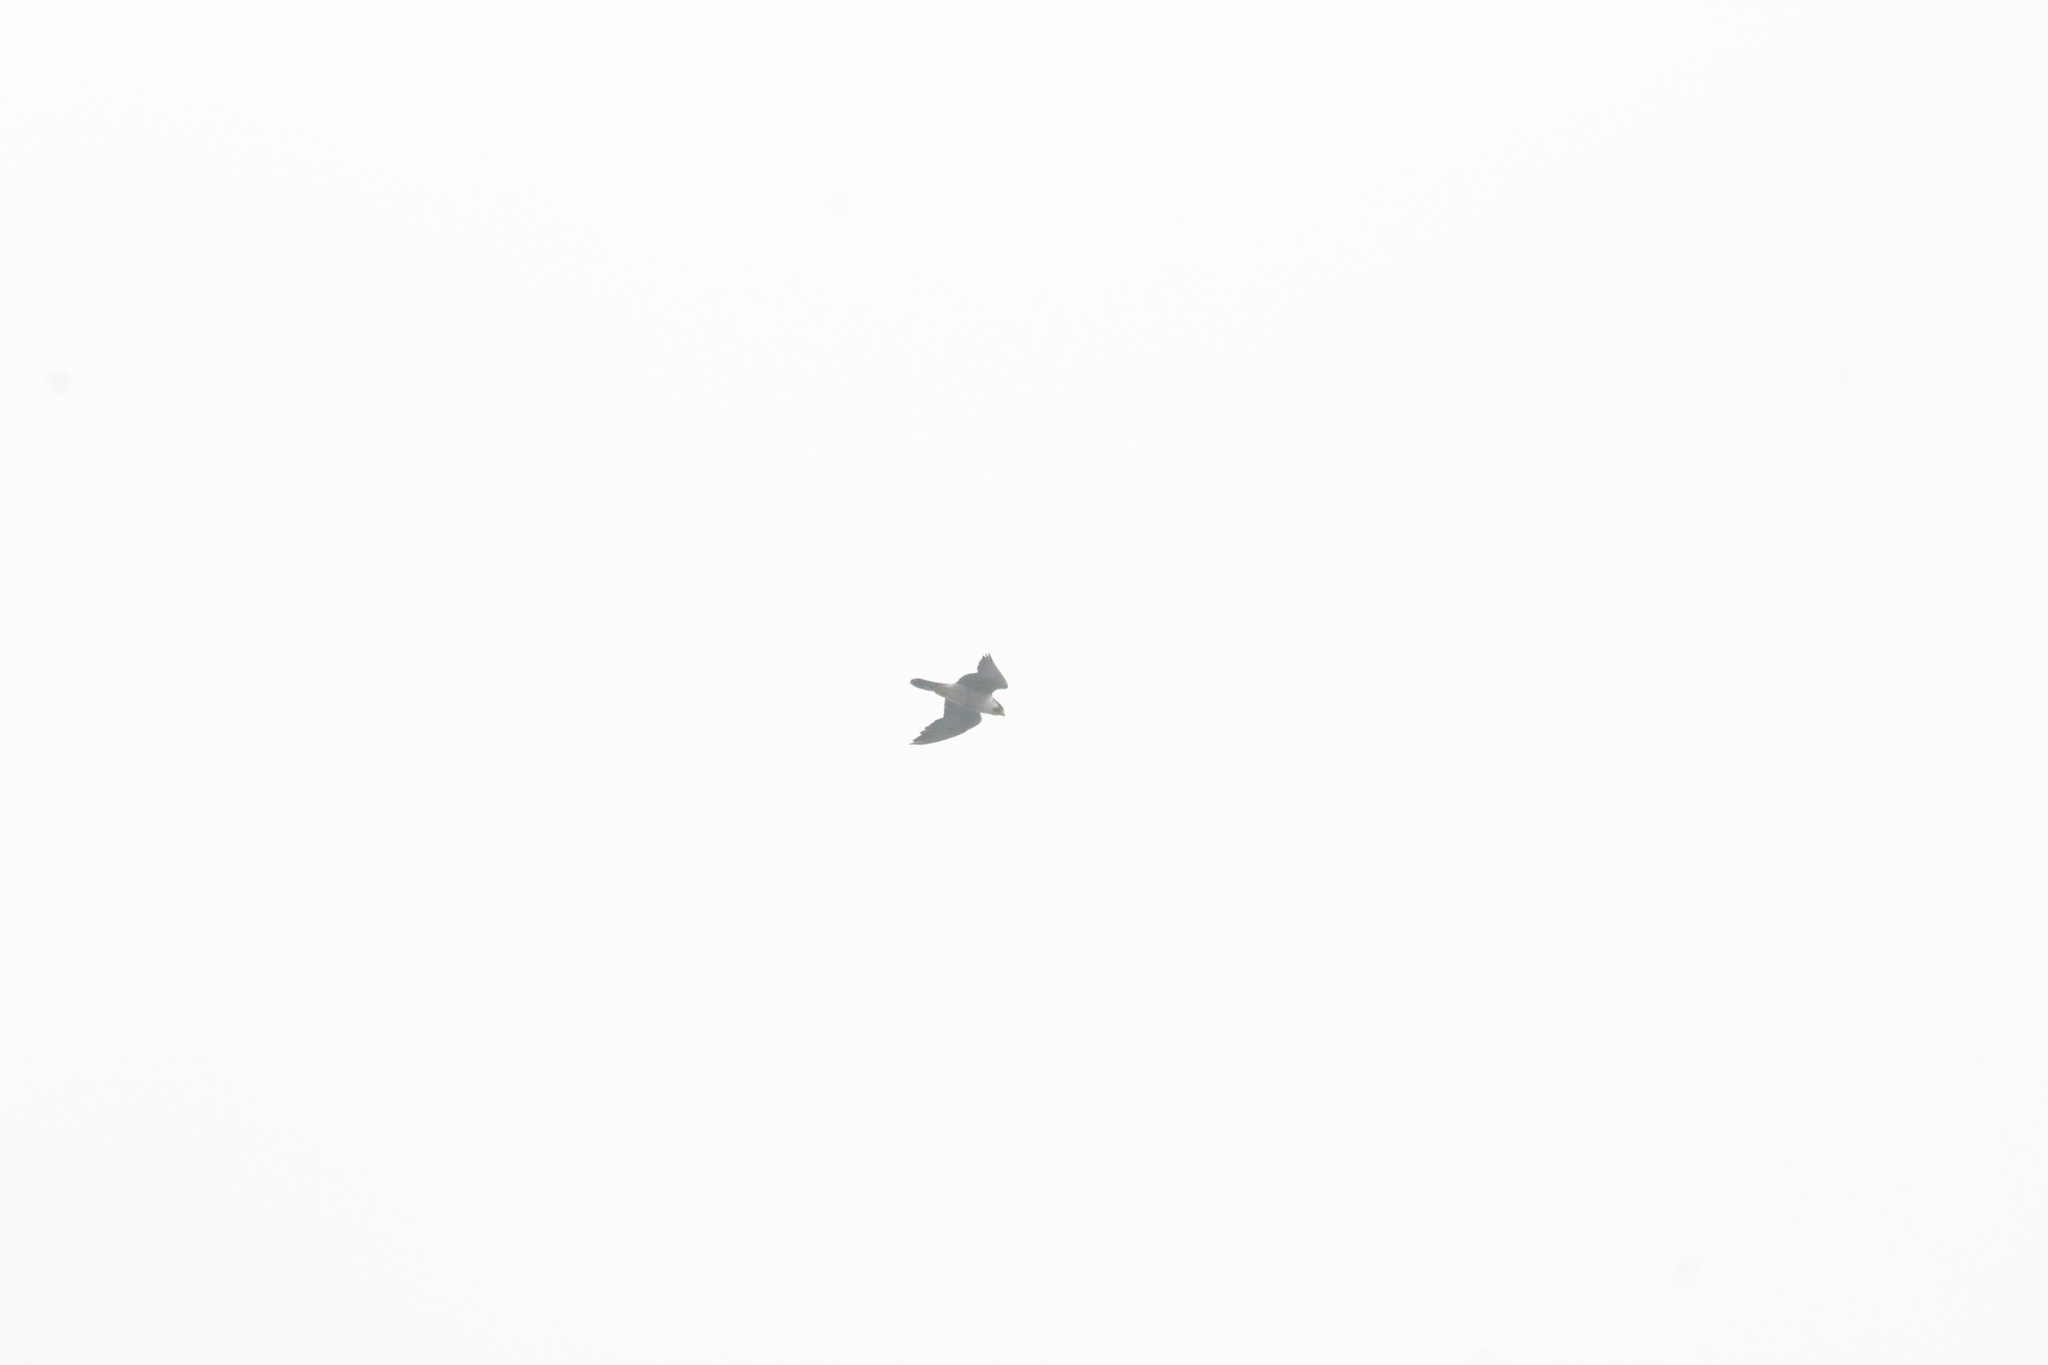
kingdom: Animalia
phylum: Chordata
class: Aves
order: Falconiformes
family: Falconidae
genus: Falco
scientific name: Falco peregrinus
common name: Peregrine falcon
